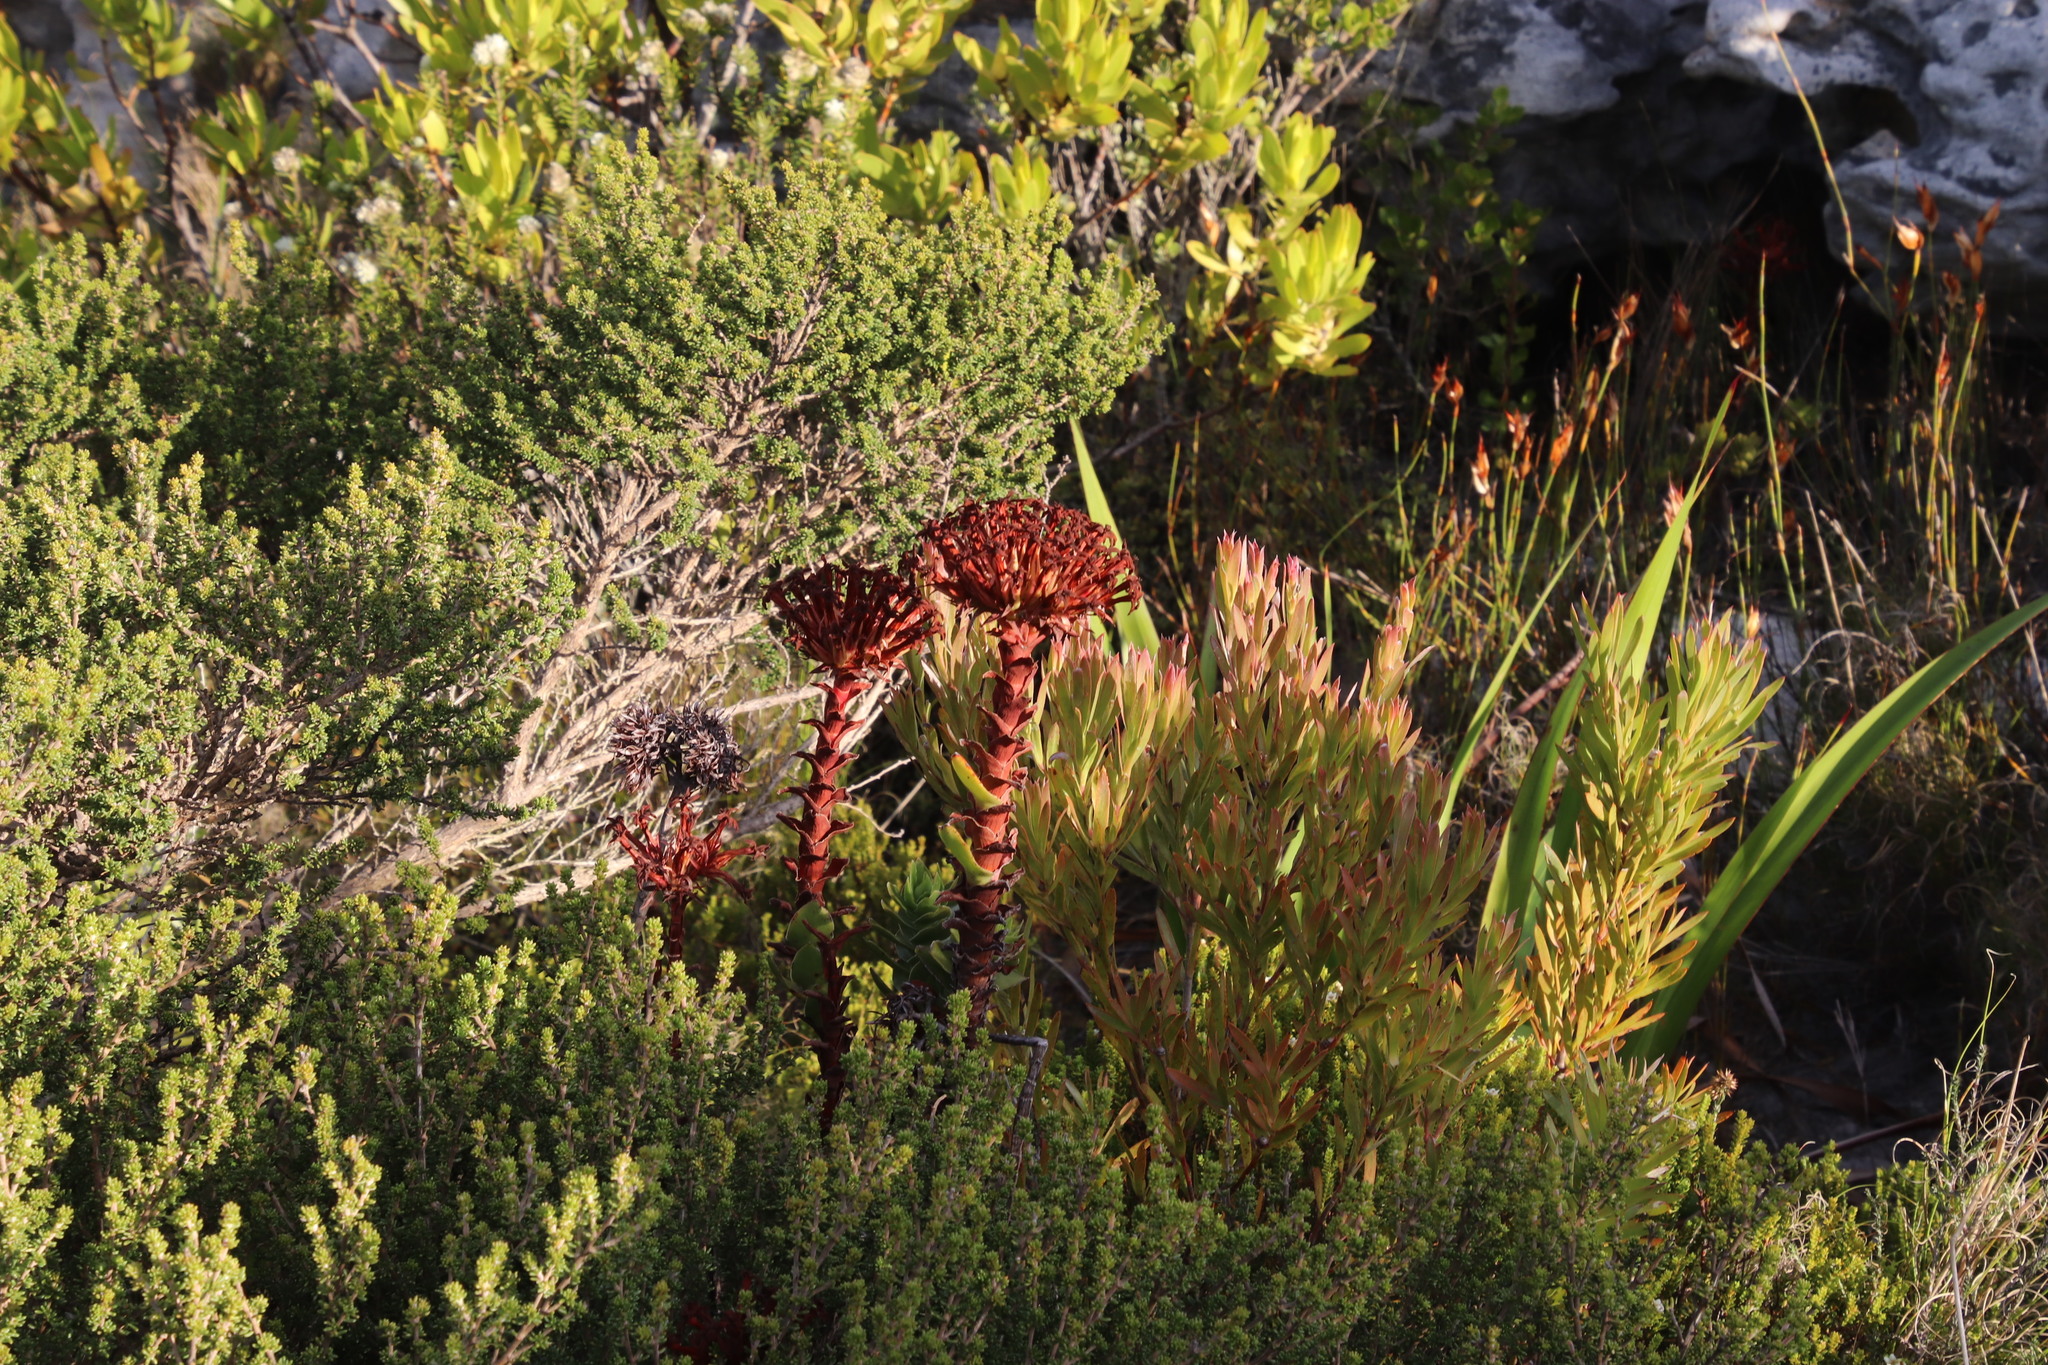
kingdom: Plantae
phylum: Tracheophyta
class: Magnoliopsida
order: Saxifragales
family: Crassulaceae
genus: Crassula
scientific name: Crassula coccinea
